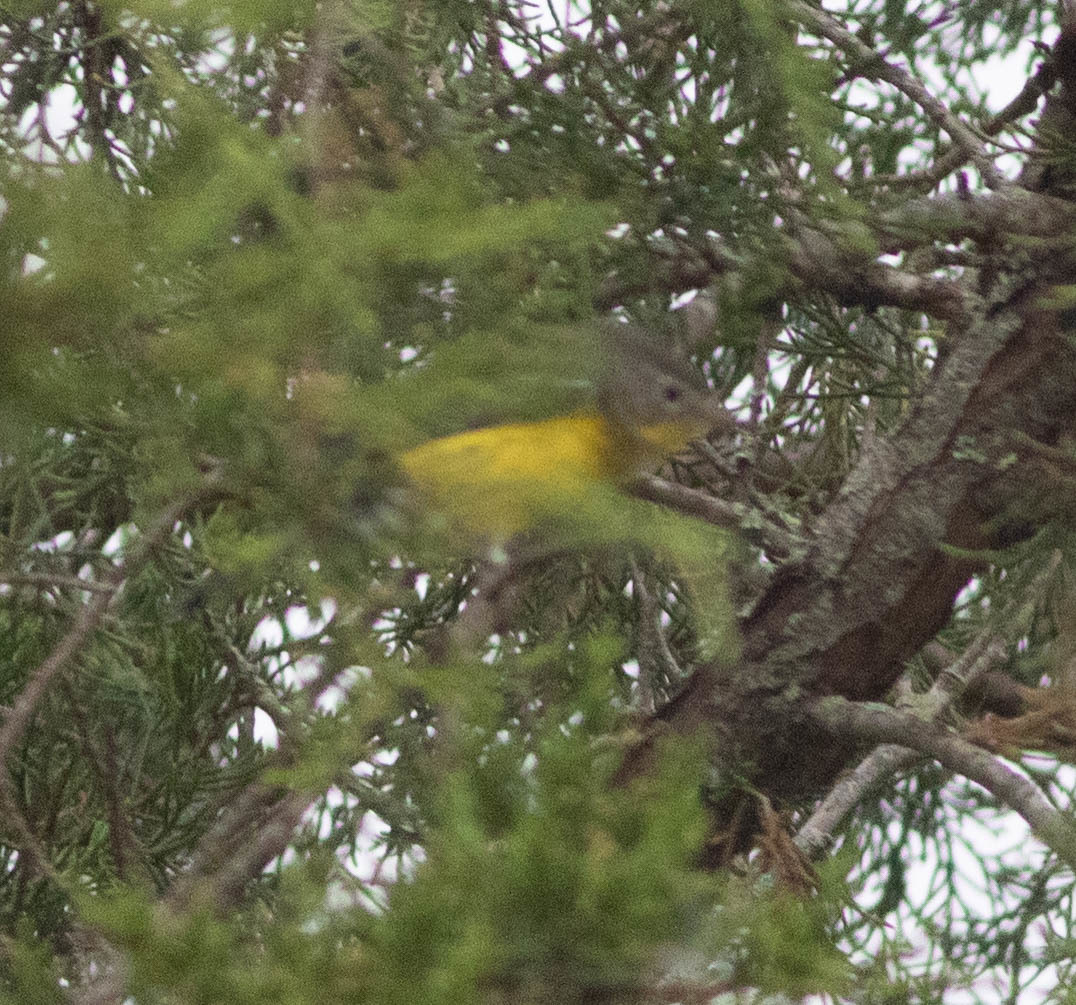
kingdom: Animalia
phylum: Chordata
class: Aves
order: Passeriformes
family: Parulidae
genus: Setophaga
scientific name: Setophaga magnolia
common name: Magnolia warbler
